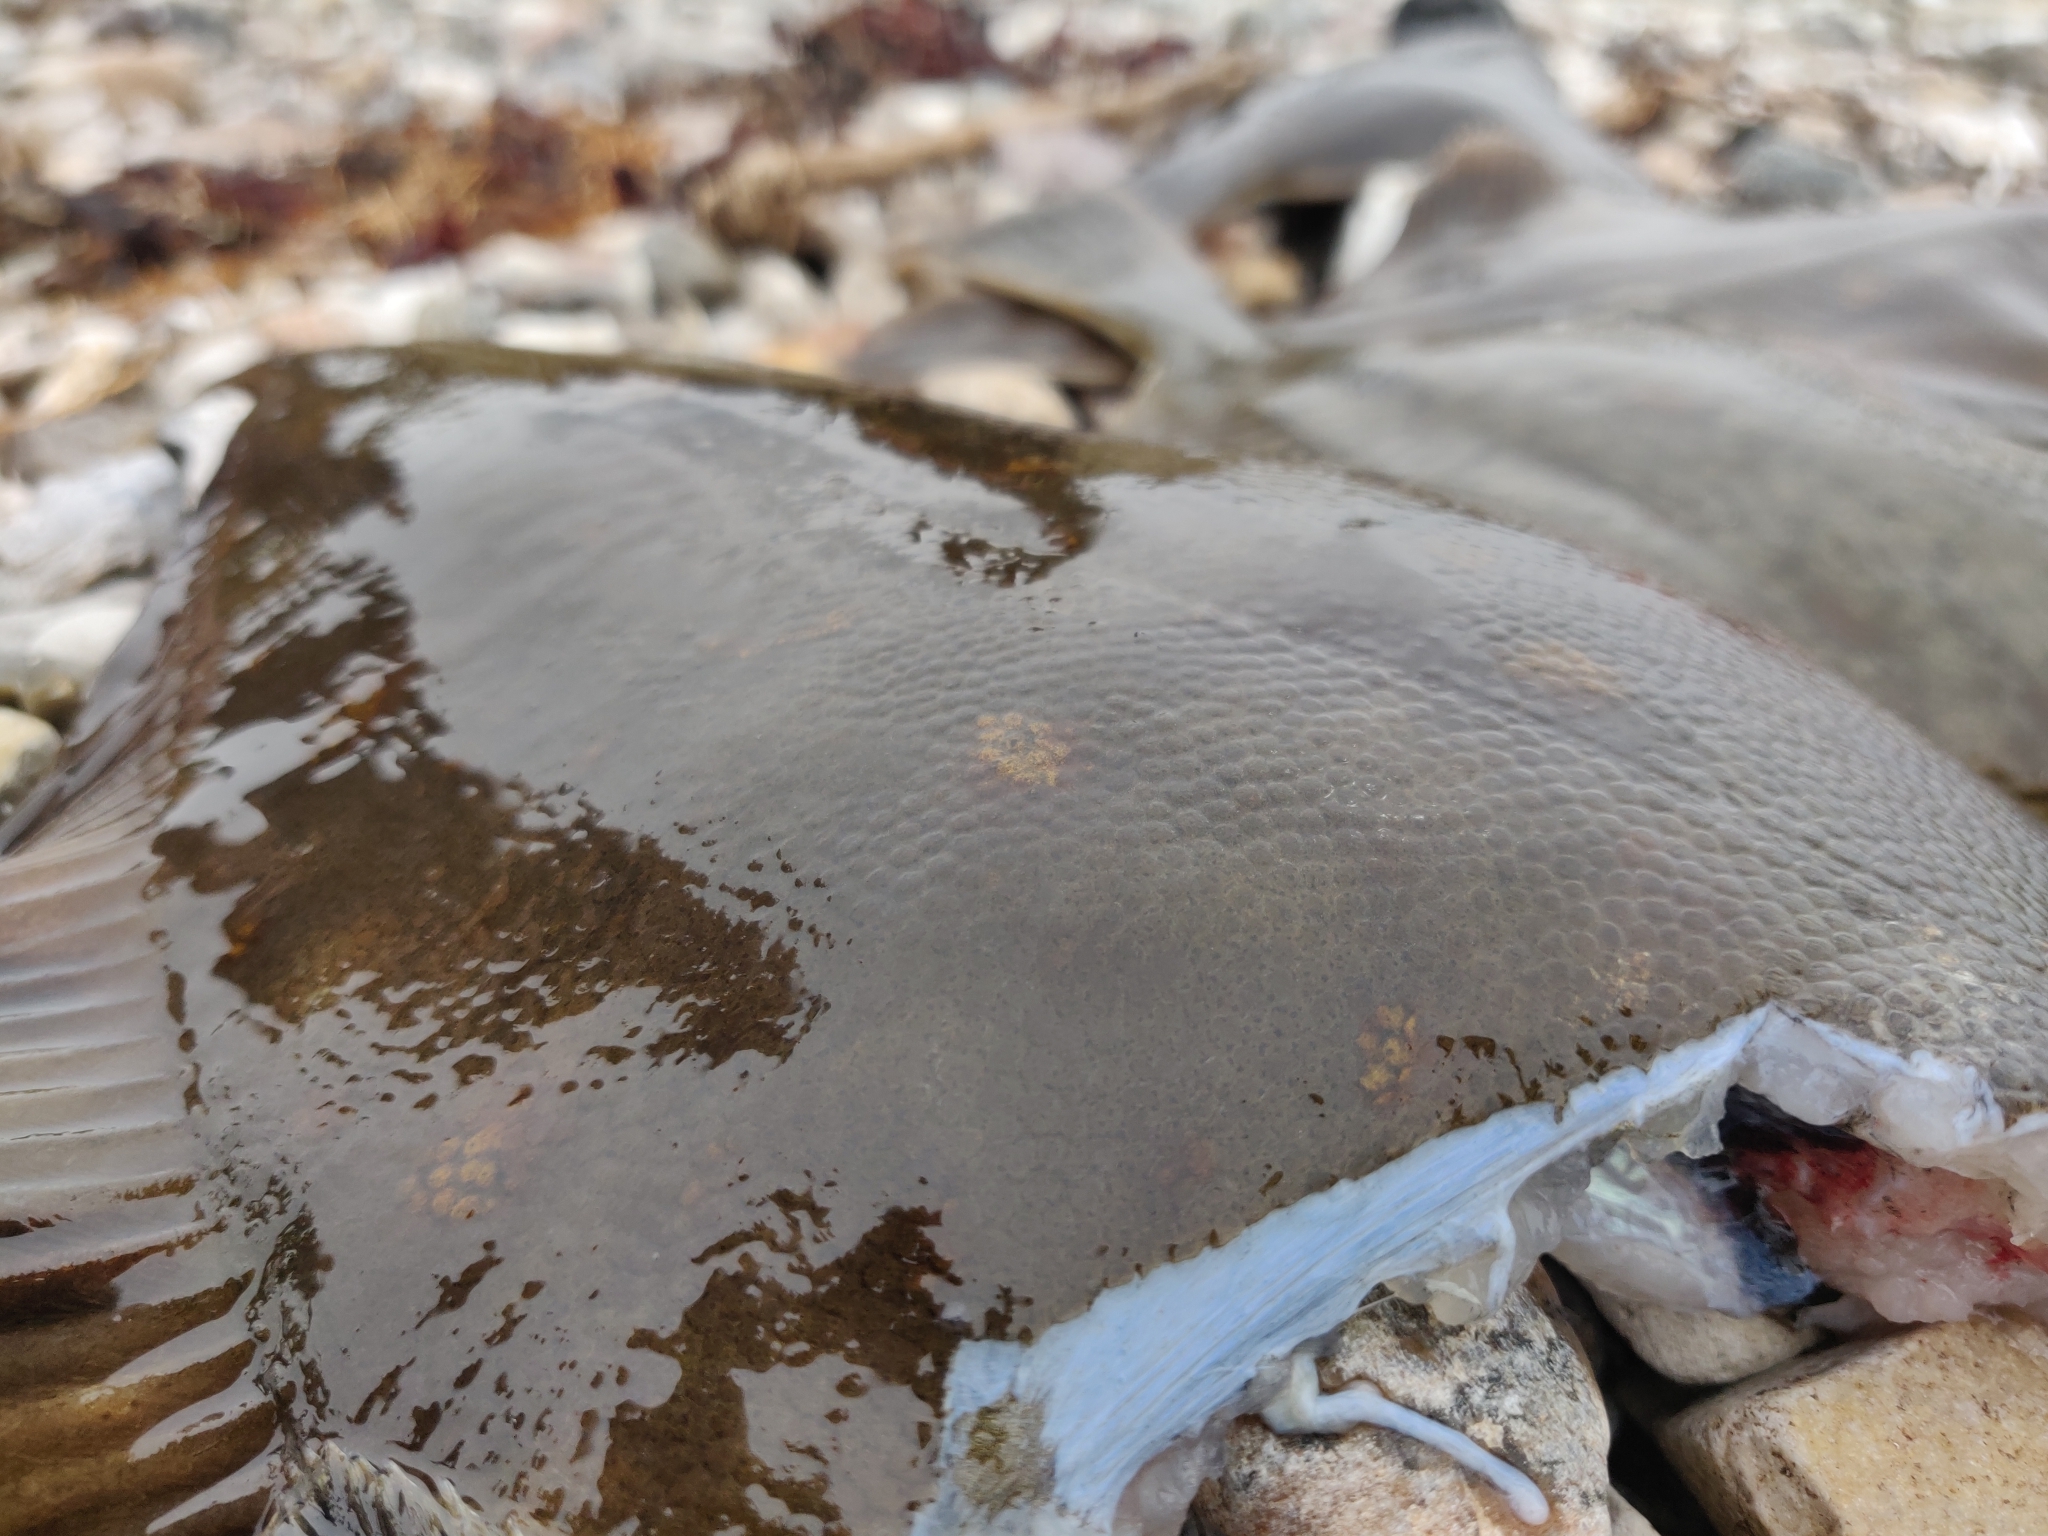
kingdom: Animalia
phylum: Chordata
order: Pleuronectiformes
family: Pleuronectidae
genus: Pleuronectes
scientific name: Pleuronectes platessa
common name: Plaice
